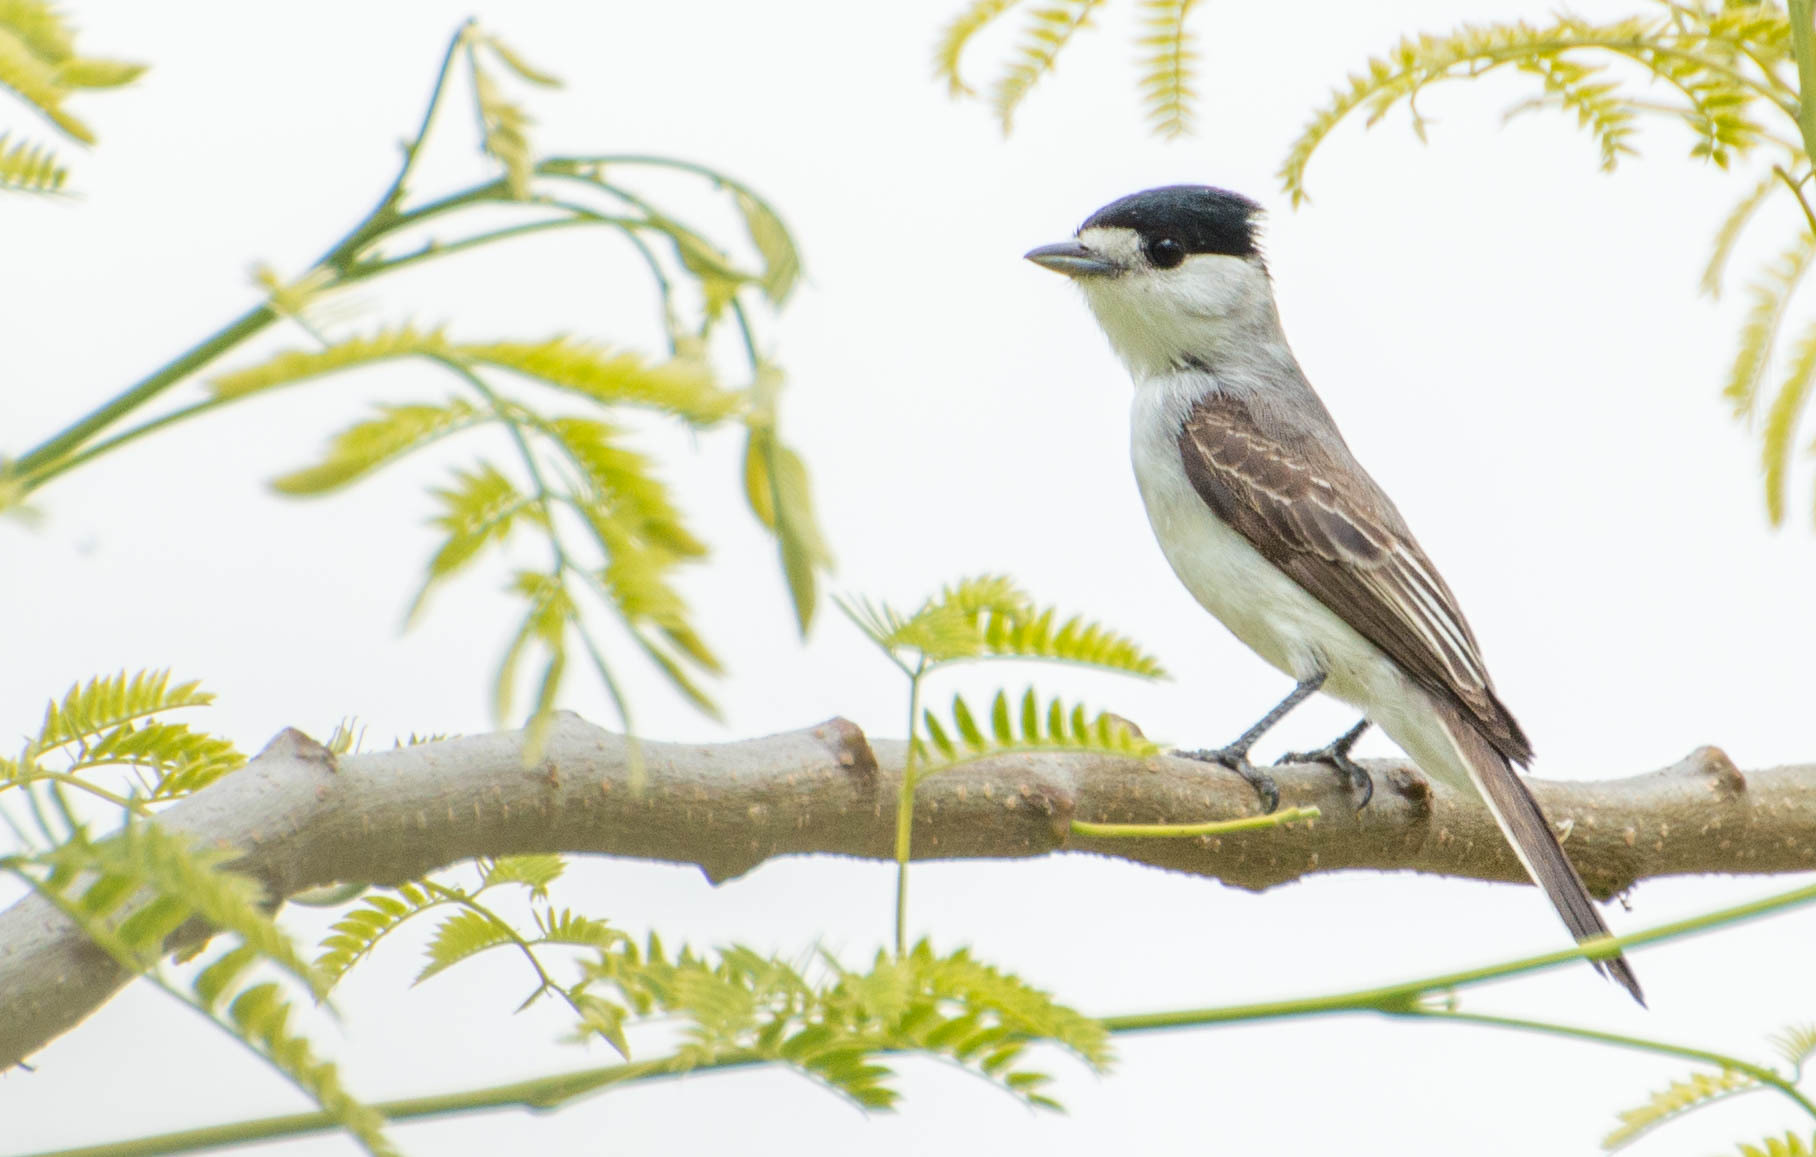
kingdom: Animalia
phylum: Chordata
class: Aves
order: Passeriformes
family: Cotingidae
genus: Xenopsaris
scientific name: Xenopsaris albinucha
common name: White-naped xenopsaris
